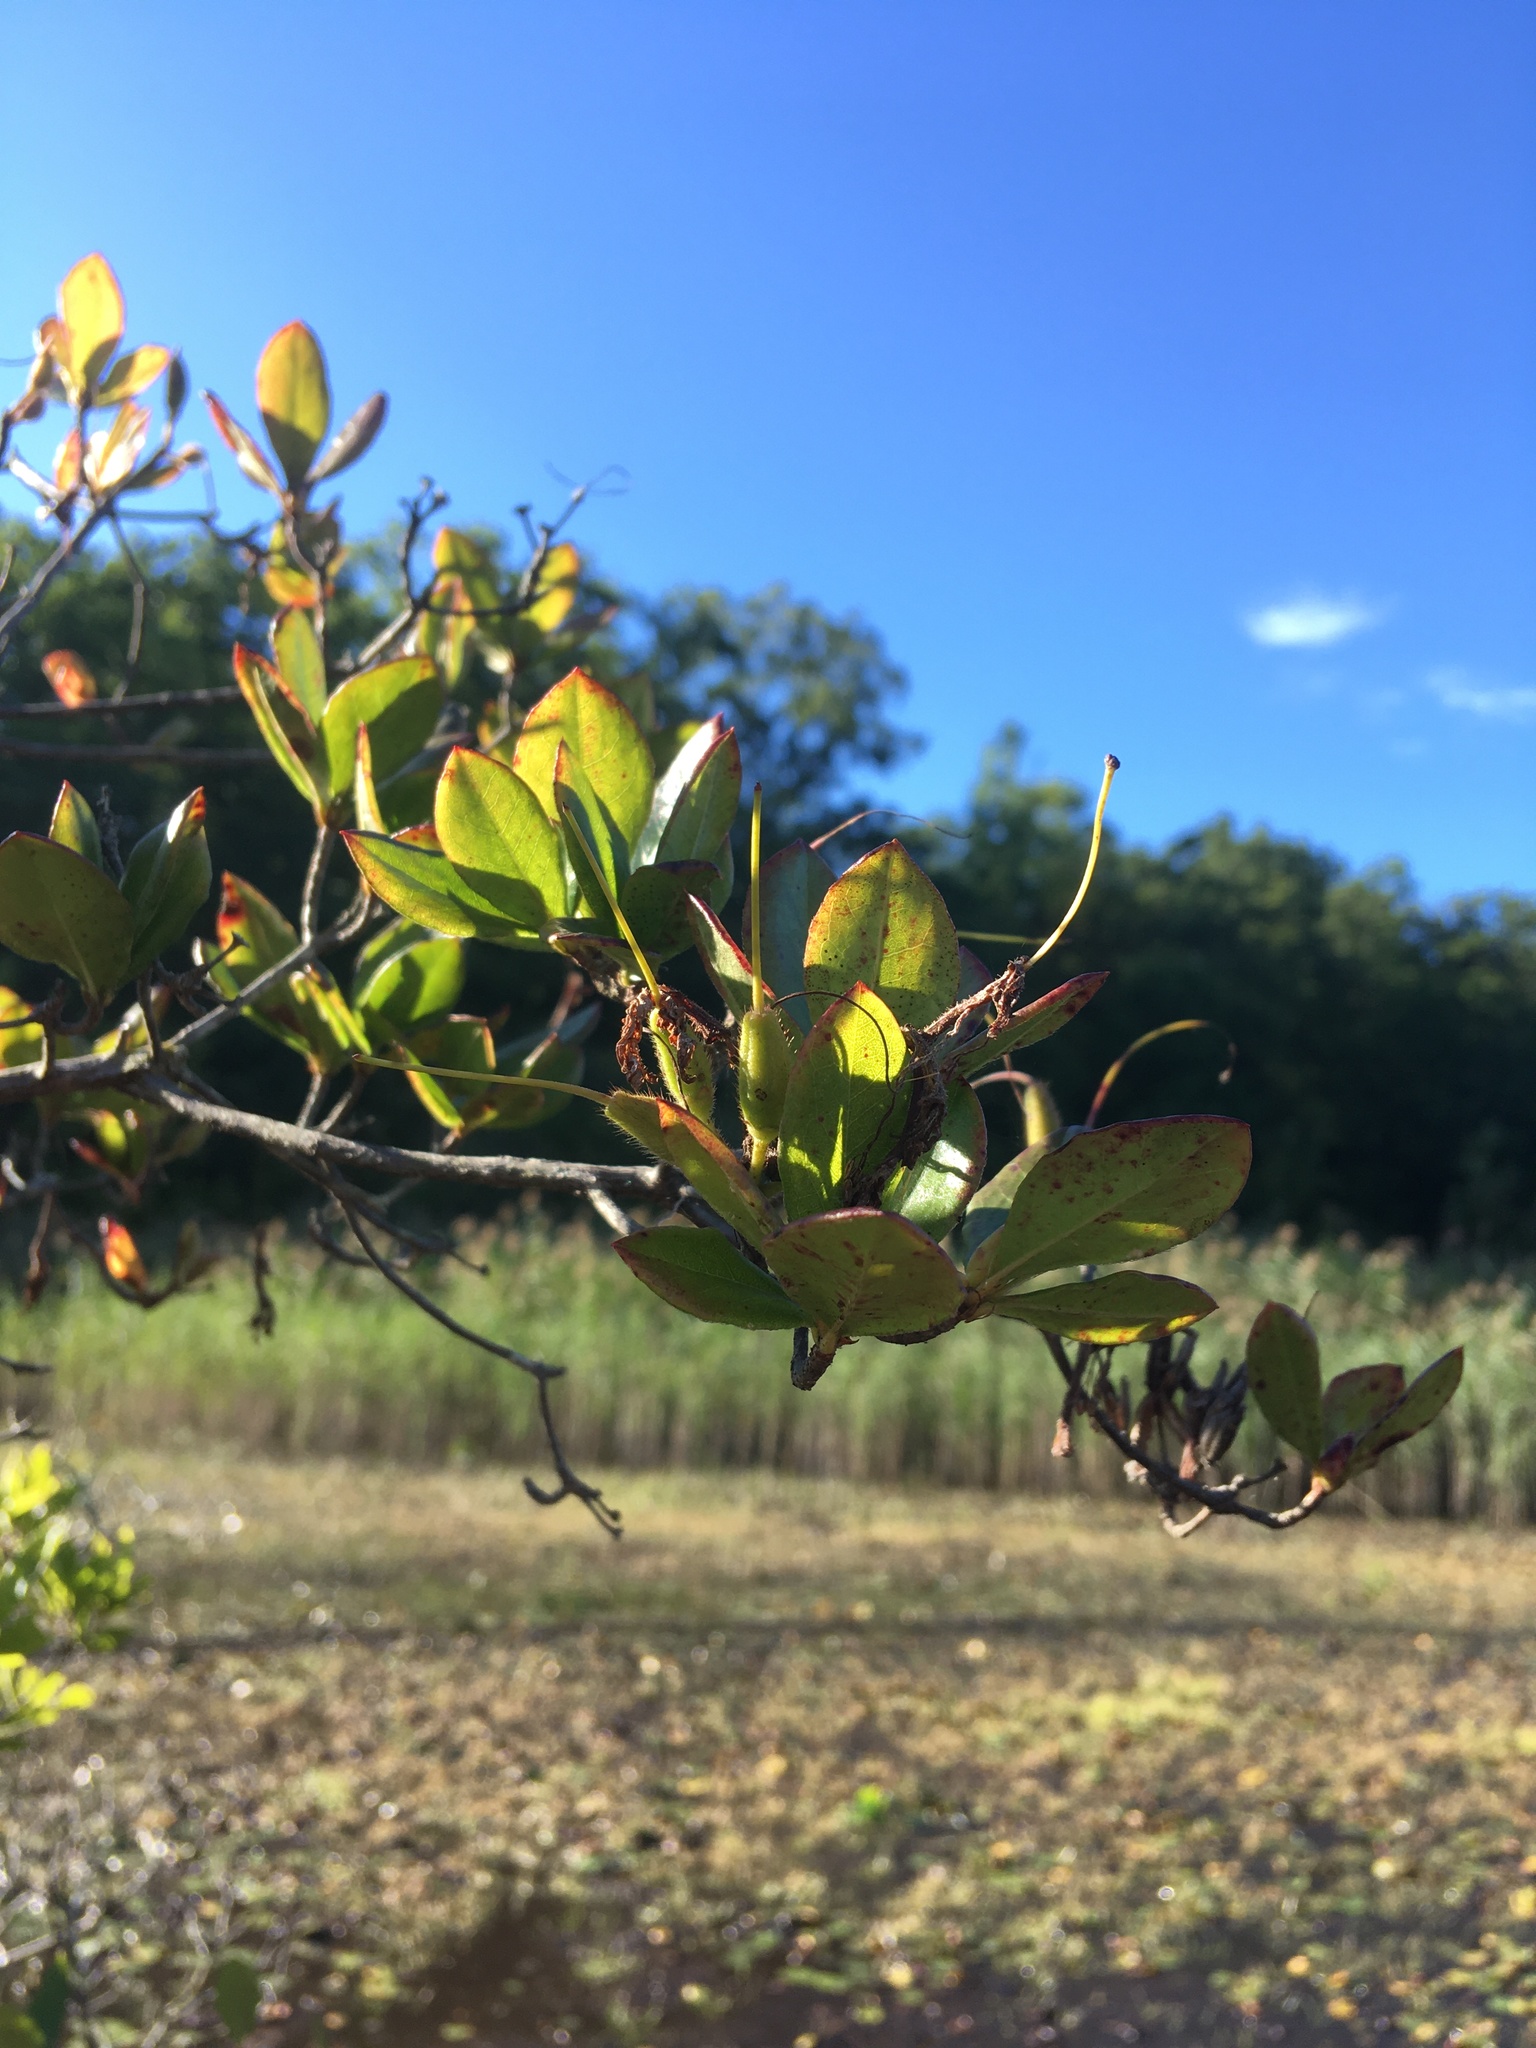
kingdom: Plantae
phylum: Tracheophyta
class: Magnoliopsida
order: Ericales
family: Ericaceae
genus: Rhododendron
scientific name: Rhododendron viscosum
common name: Clammy azalea
